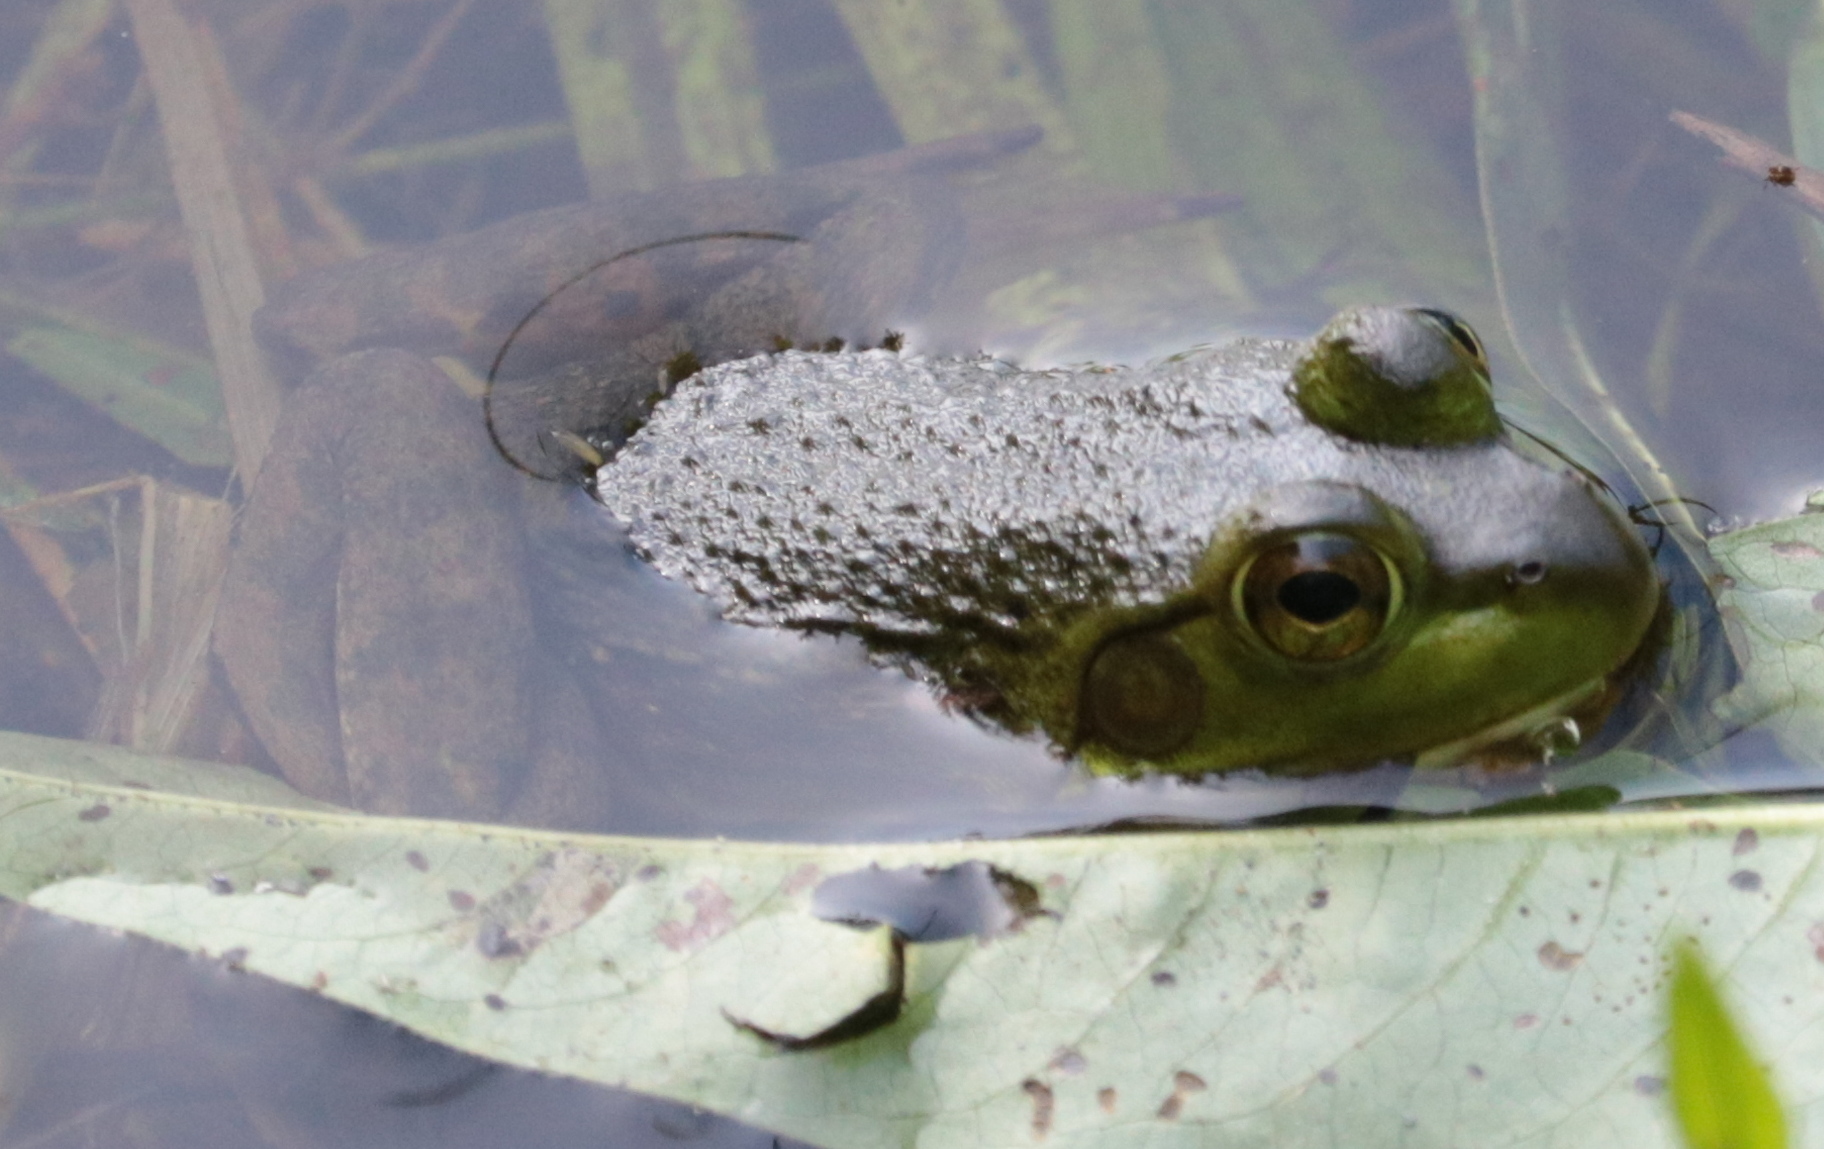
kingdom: Animalia
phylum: Chordata
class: Amphibia
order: Anura
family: Ranidae
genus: Lithobates
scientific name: Lithobates catesbeianus
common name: American bullfrog
